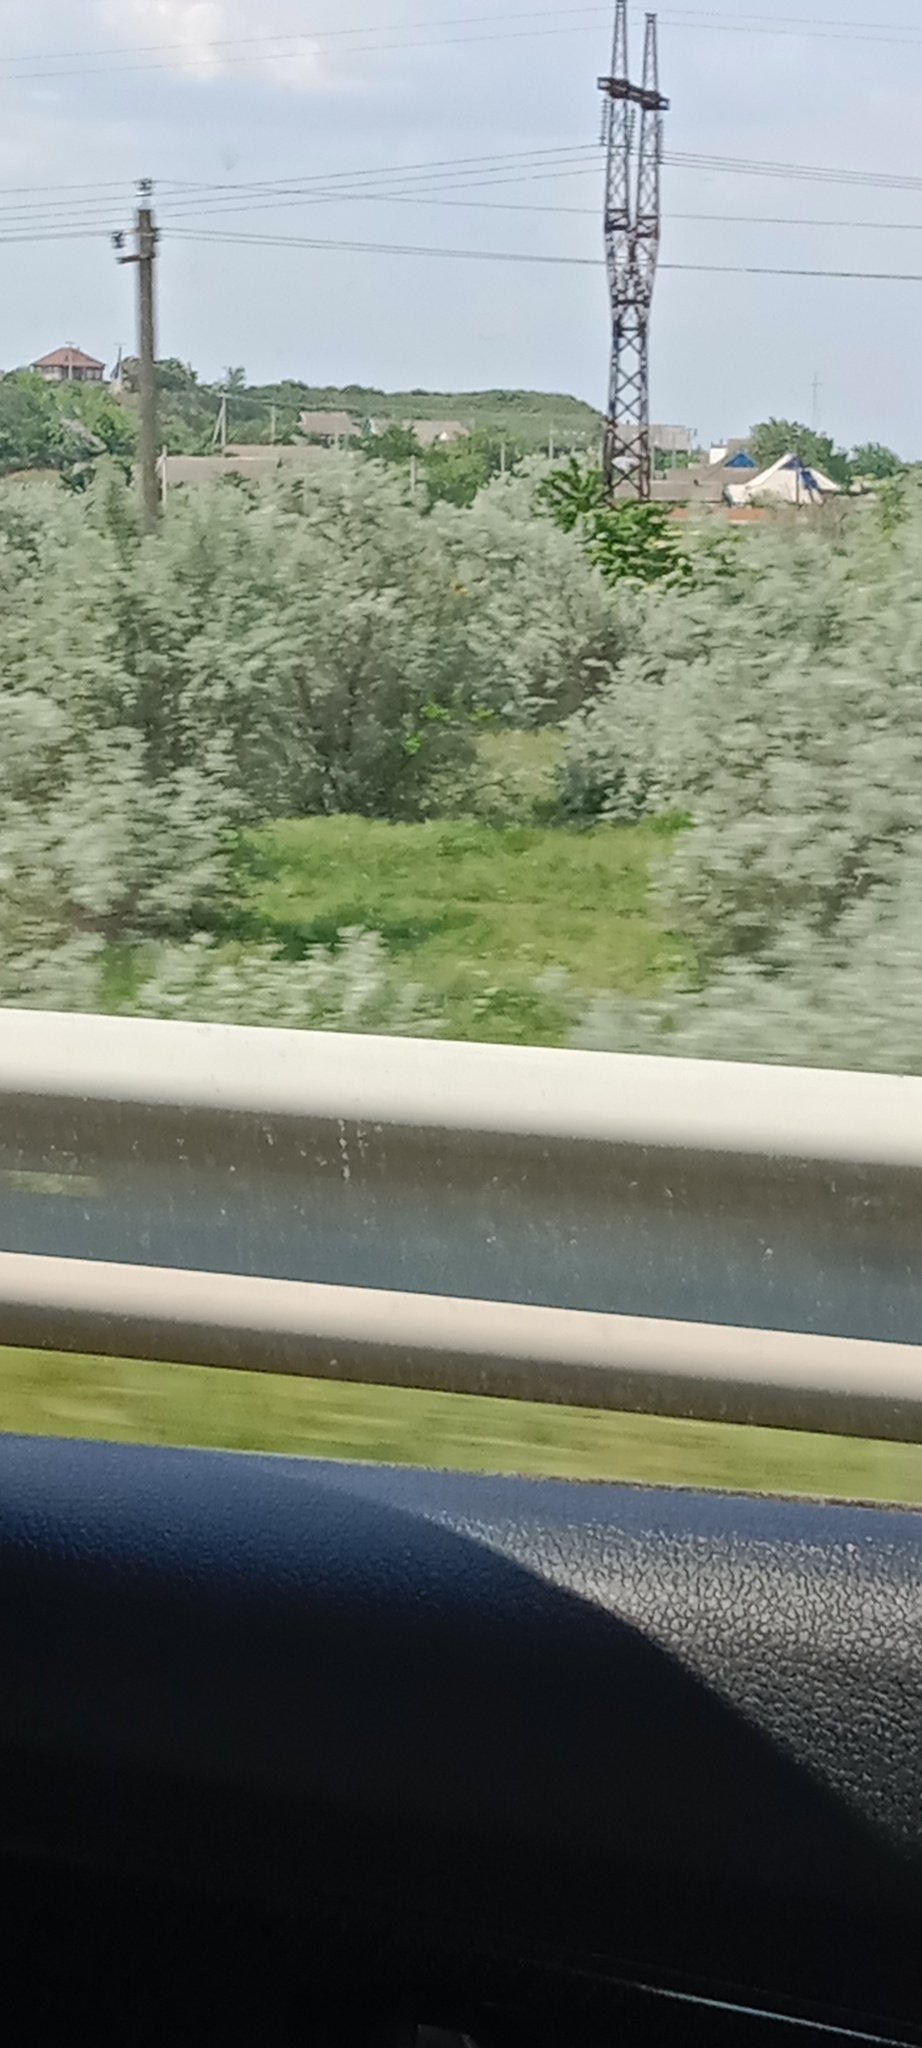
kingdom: Plantae
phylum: Tracheophyta
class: Magnoliopsida
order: Rosales
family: Elaeagnaceae
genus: Elaeagnus
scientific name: Elaeagnus angustifolia
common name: Russian olive
